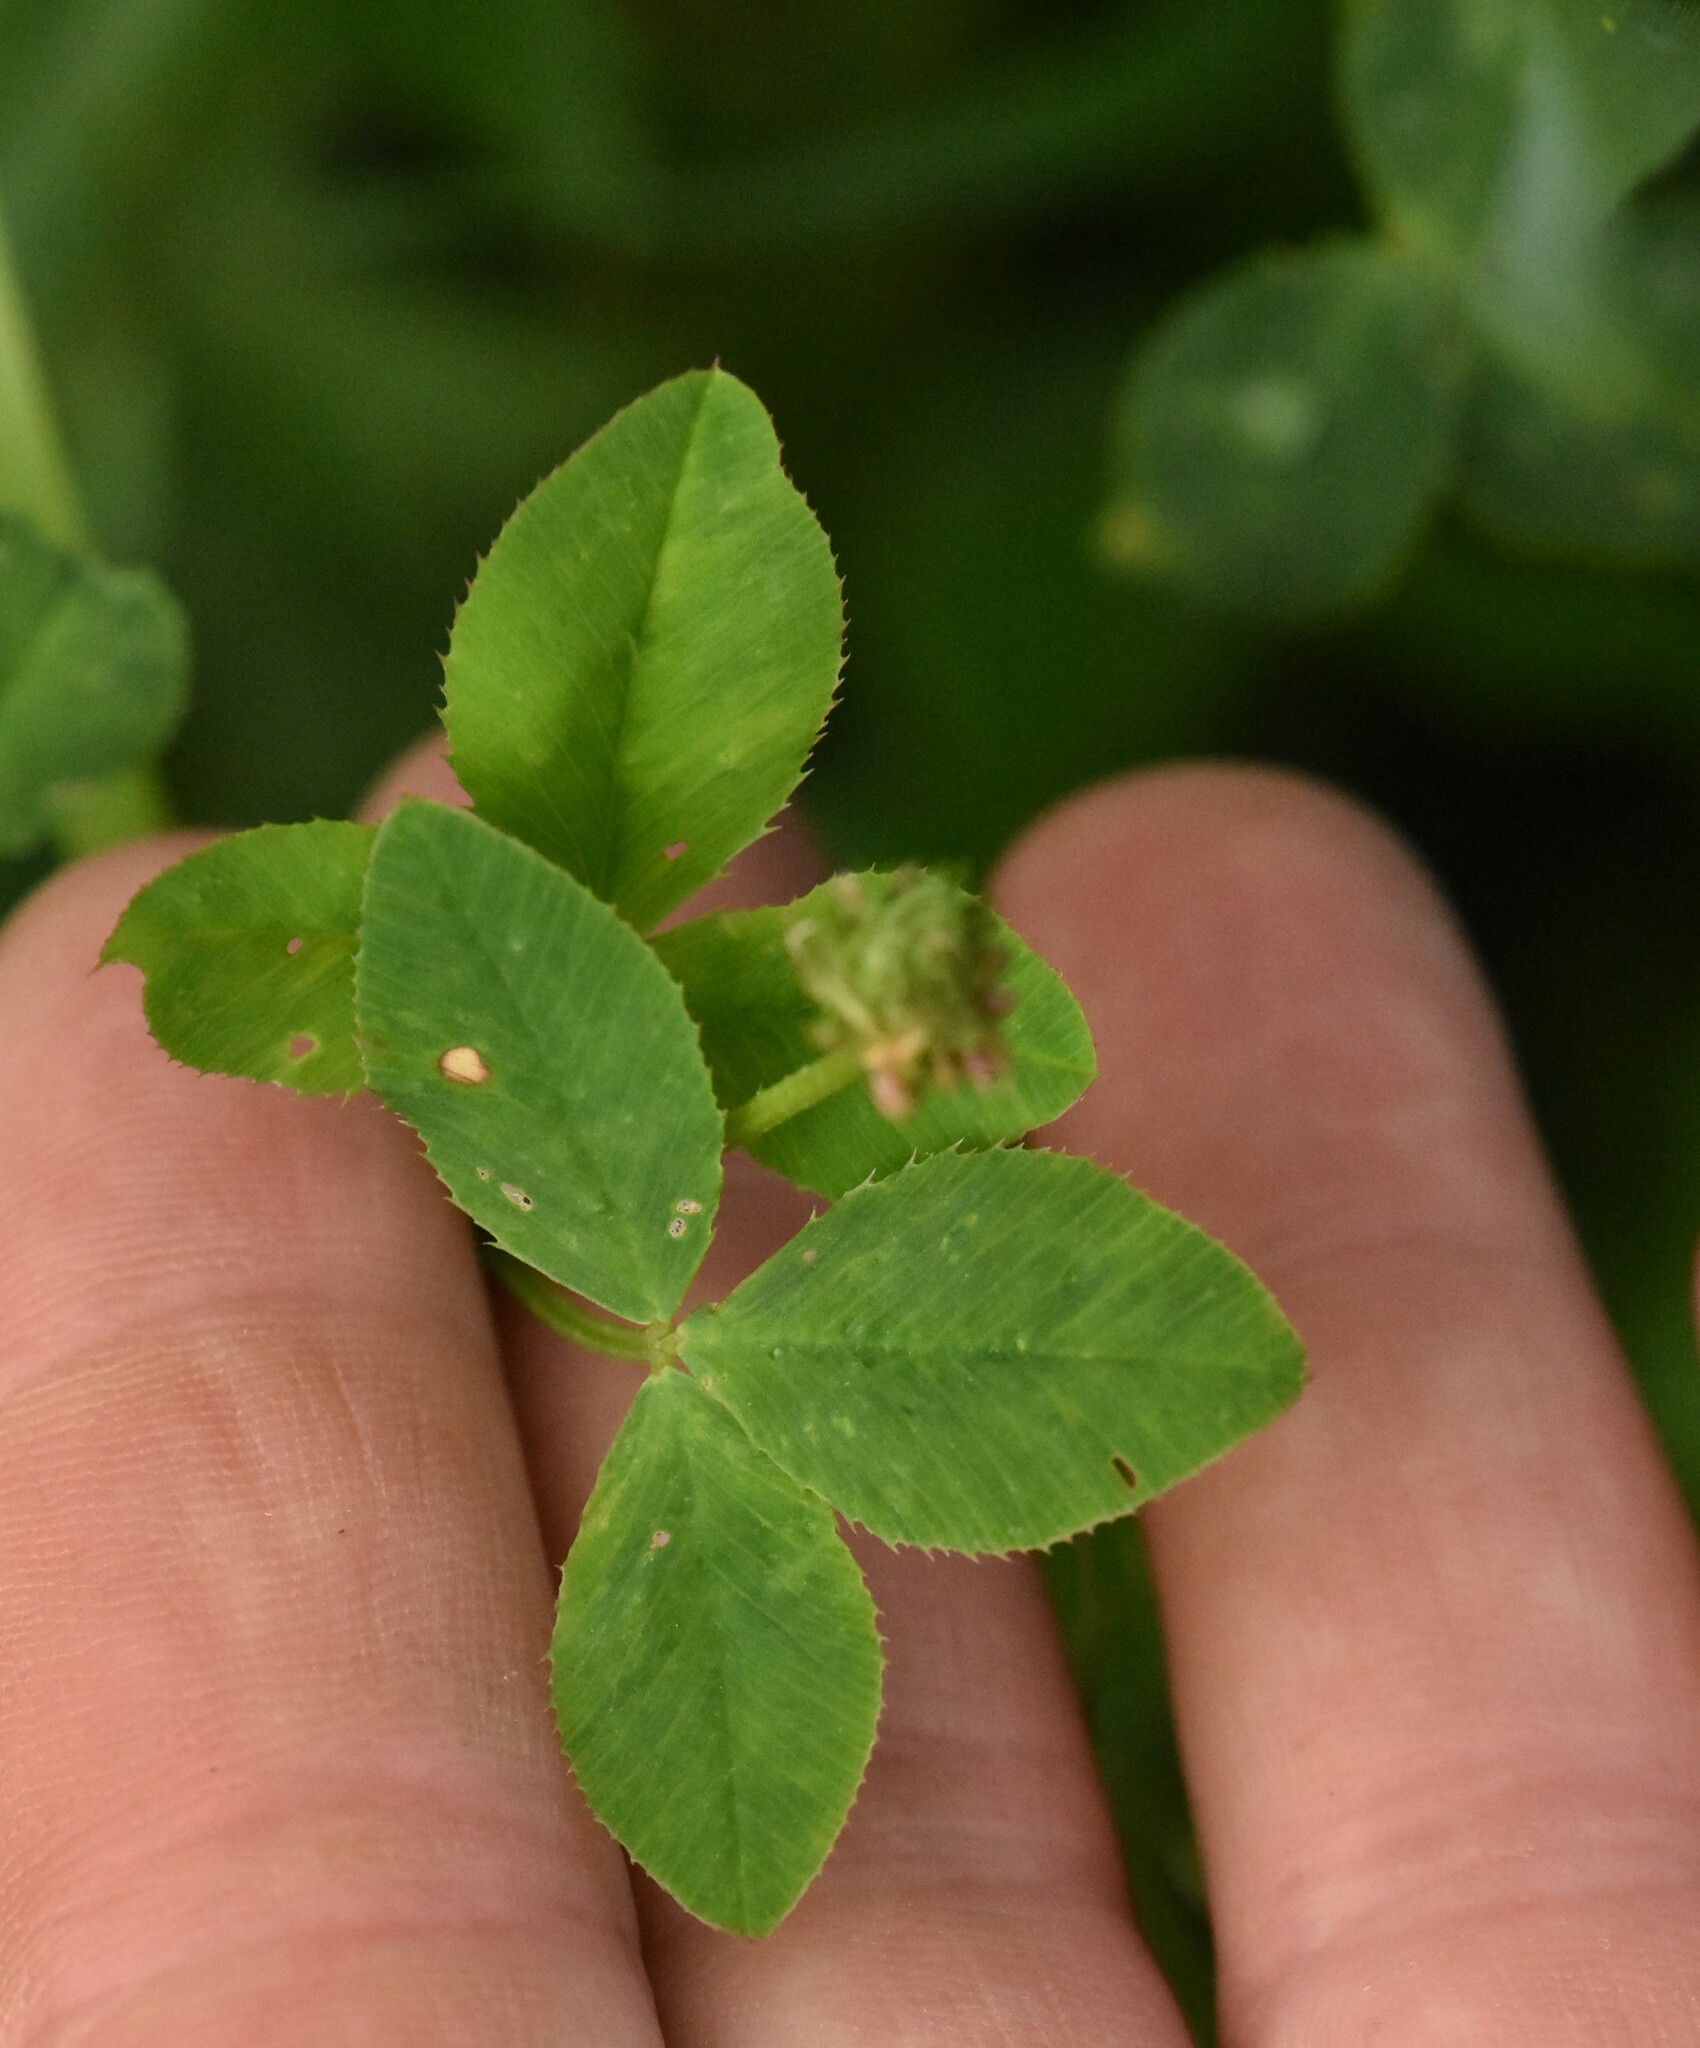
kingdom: Plantae
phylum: Tracheophyta
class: Magnoliopsida
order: Fabales
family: Fabaceae
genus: Trifolium
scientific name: Trifolium hybridum
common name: Alsike clover
